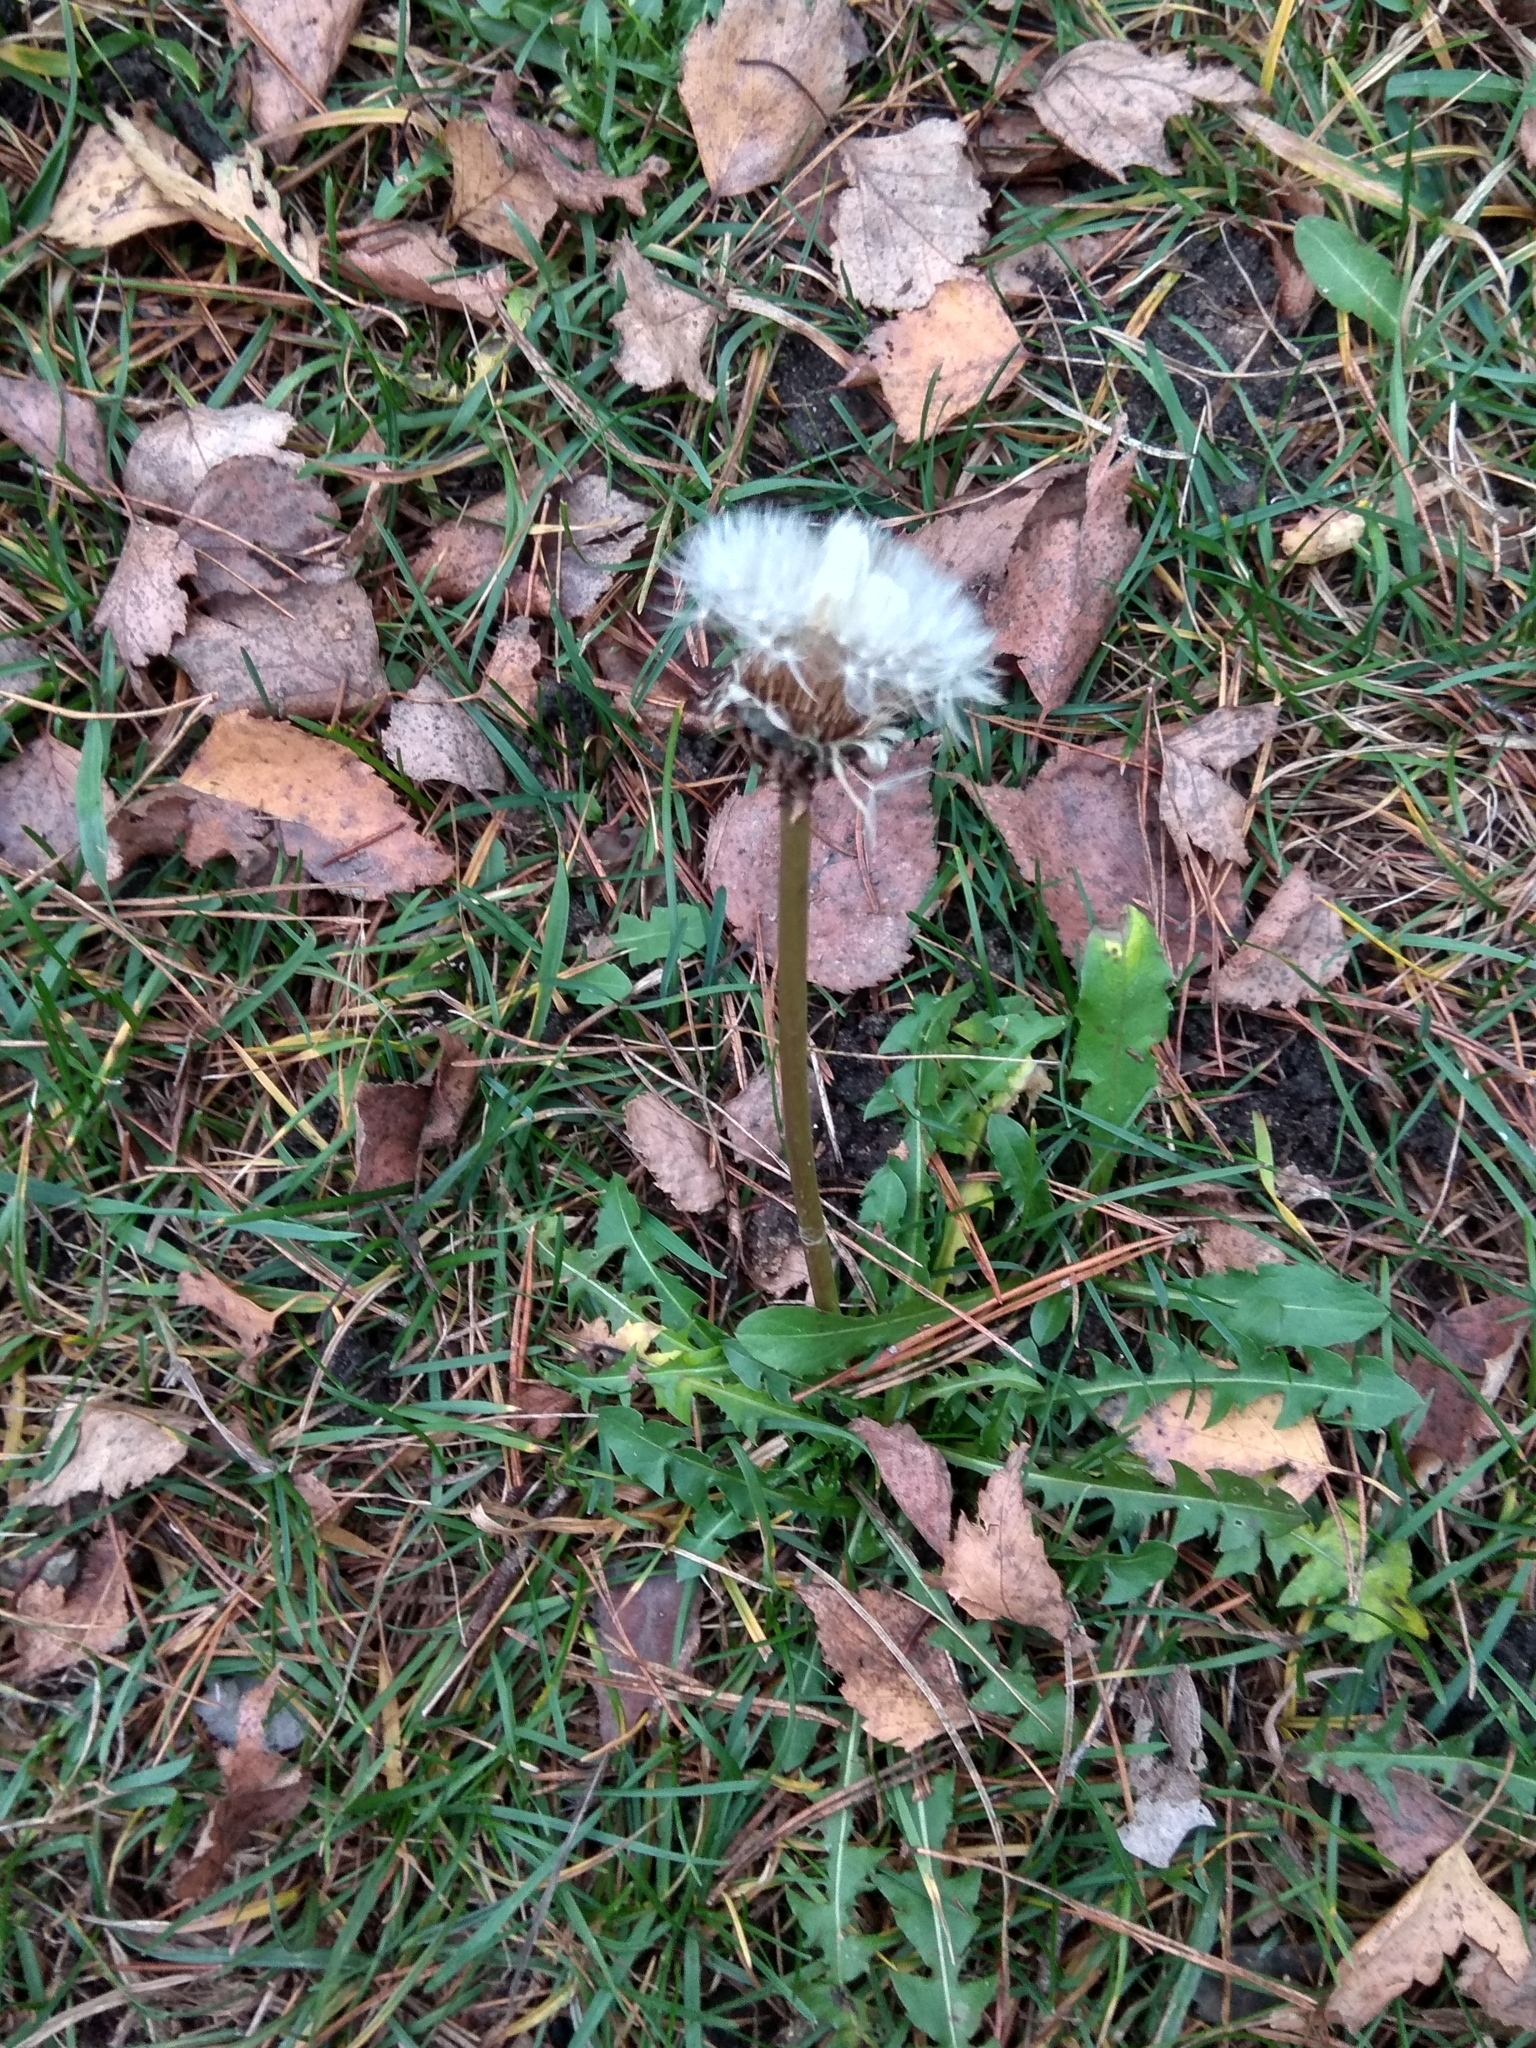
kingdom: Plantae
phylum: Tracheophyta
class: Magnoliopsida
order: Asterales
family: Asteraceae
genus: Taraxacum
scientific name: Taraxacum officinale
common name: Common dandelion
